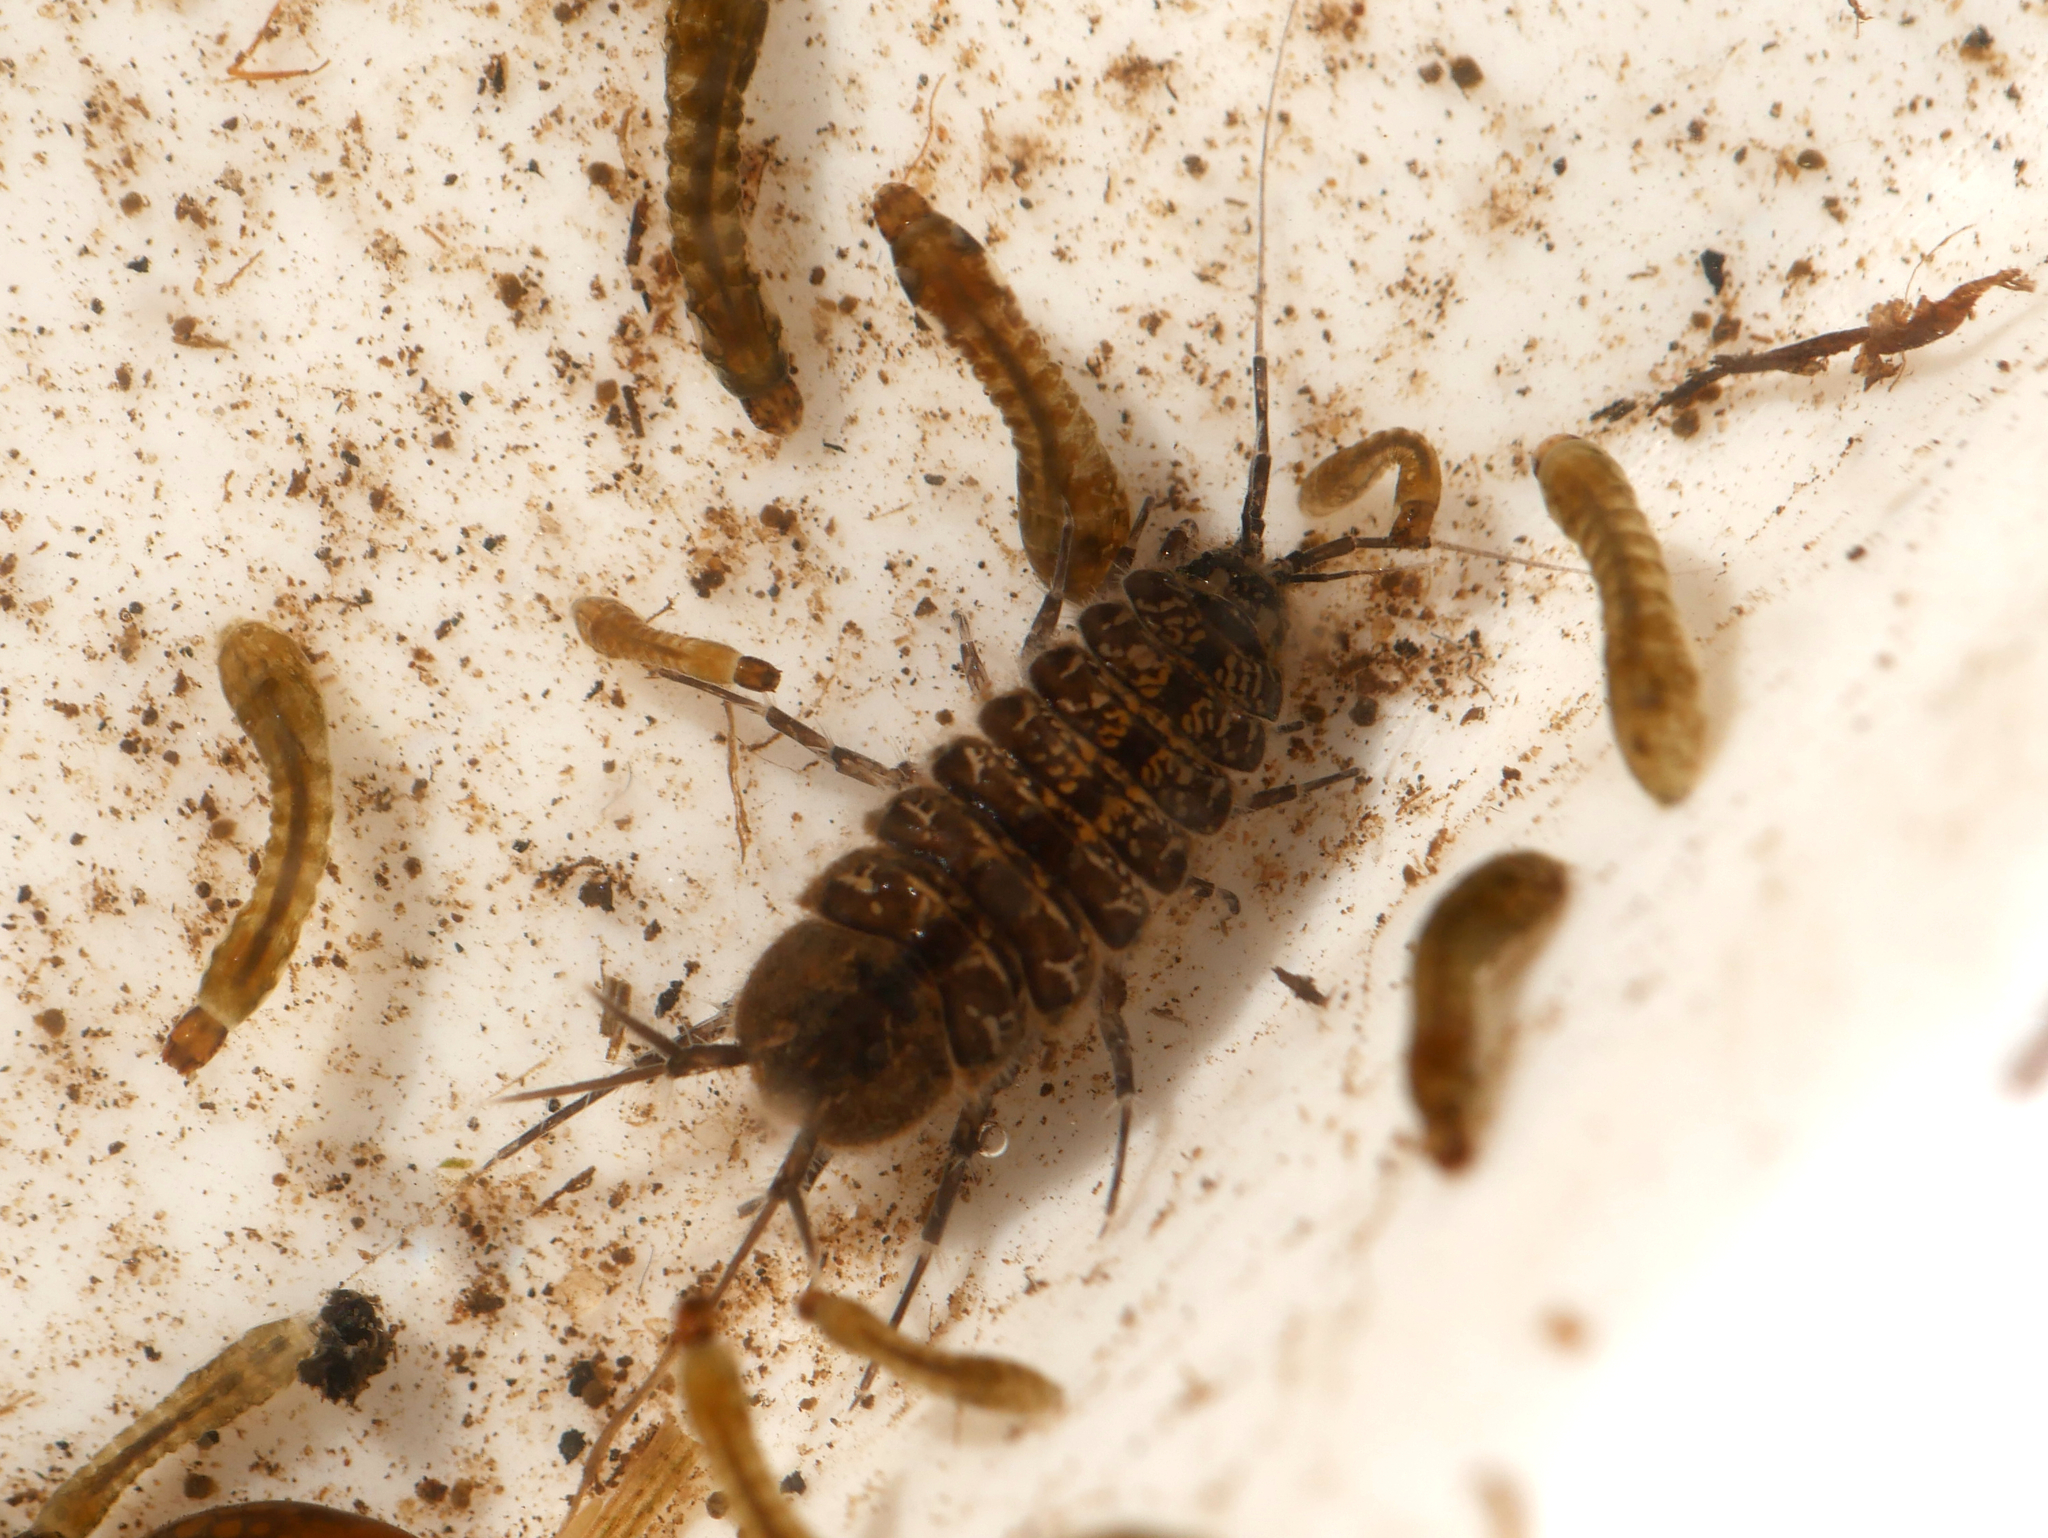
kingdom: Animalia
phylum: Arthropoda
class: Malacostraca
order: Isopoda
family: Asellidae
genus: Asellus
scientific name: Asellus aquaticus
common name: Water hog lice/slaters
